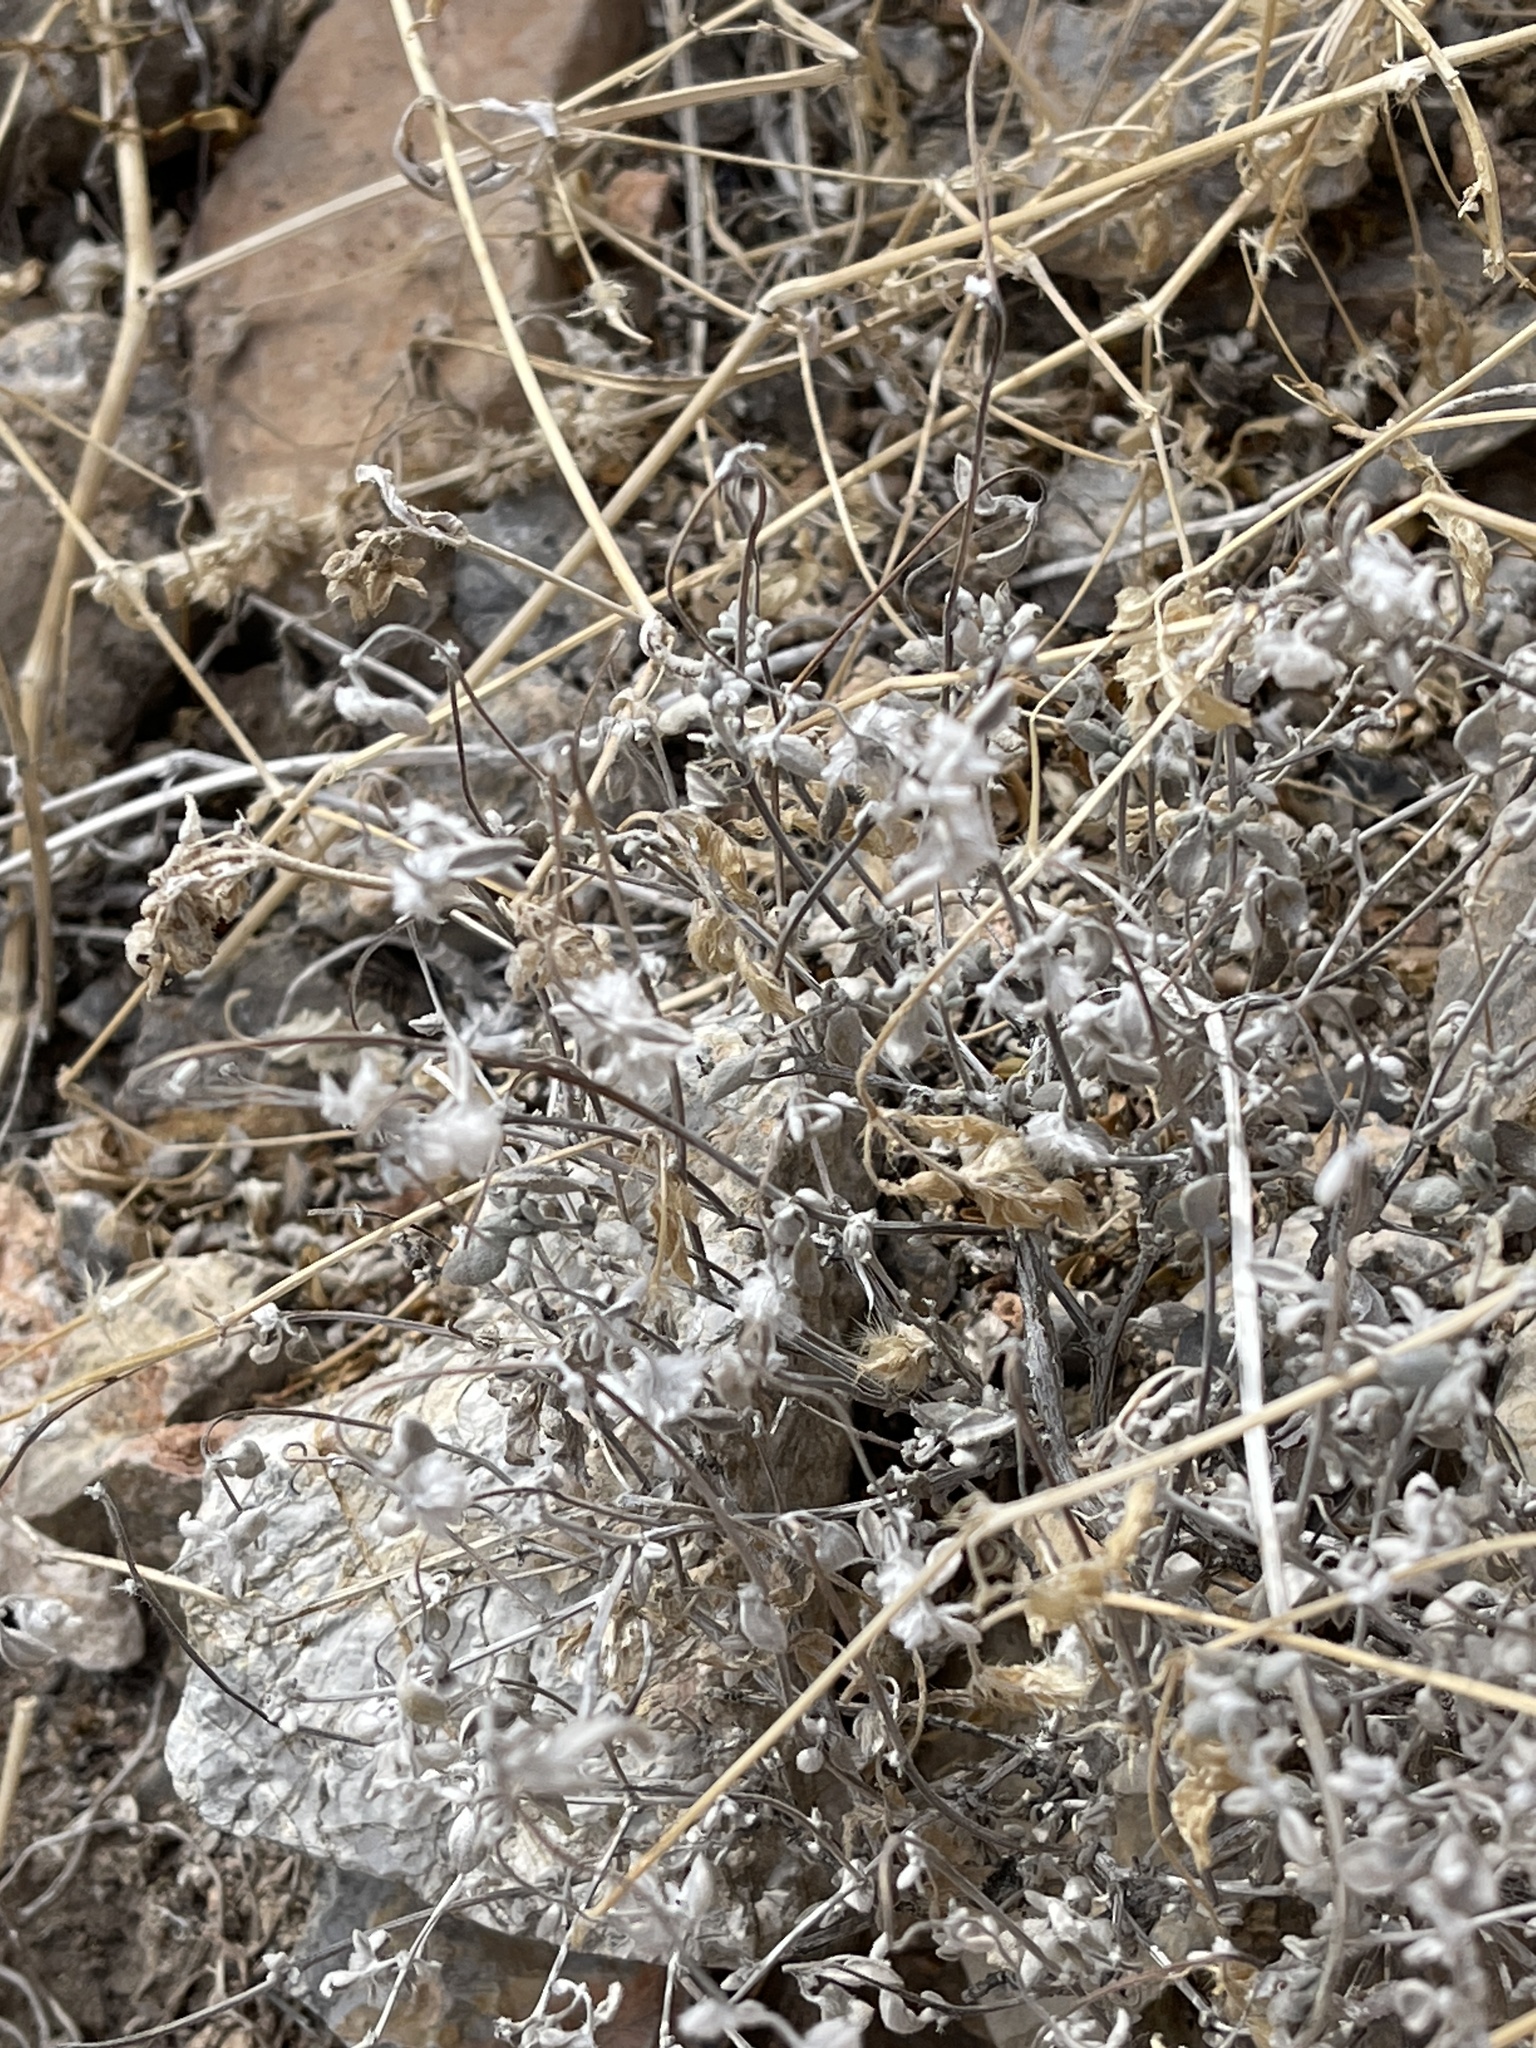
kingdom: Plantae
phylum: Tracheophyta
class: Magnoliopsida
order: Boraginales
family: Ehretiaceae
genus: Tiquilia
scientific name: Tiquilia canescens
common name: Hairy tiquilia
